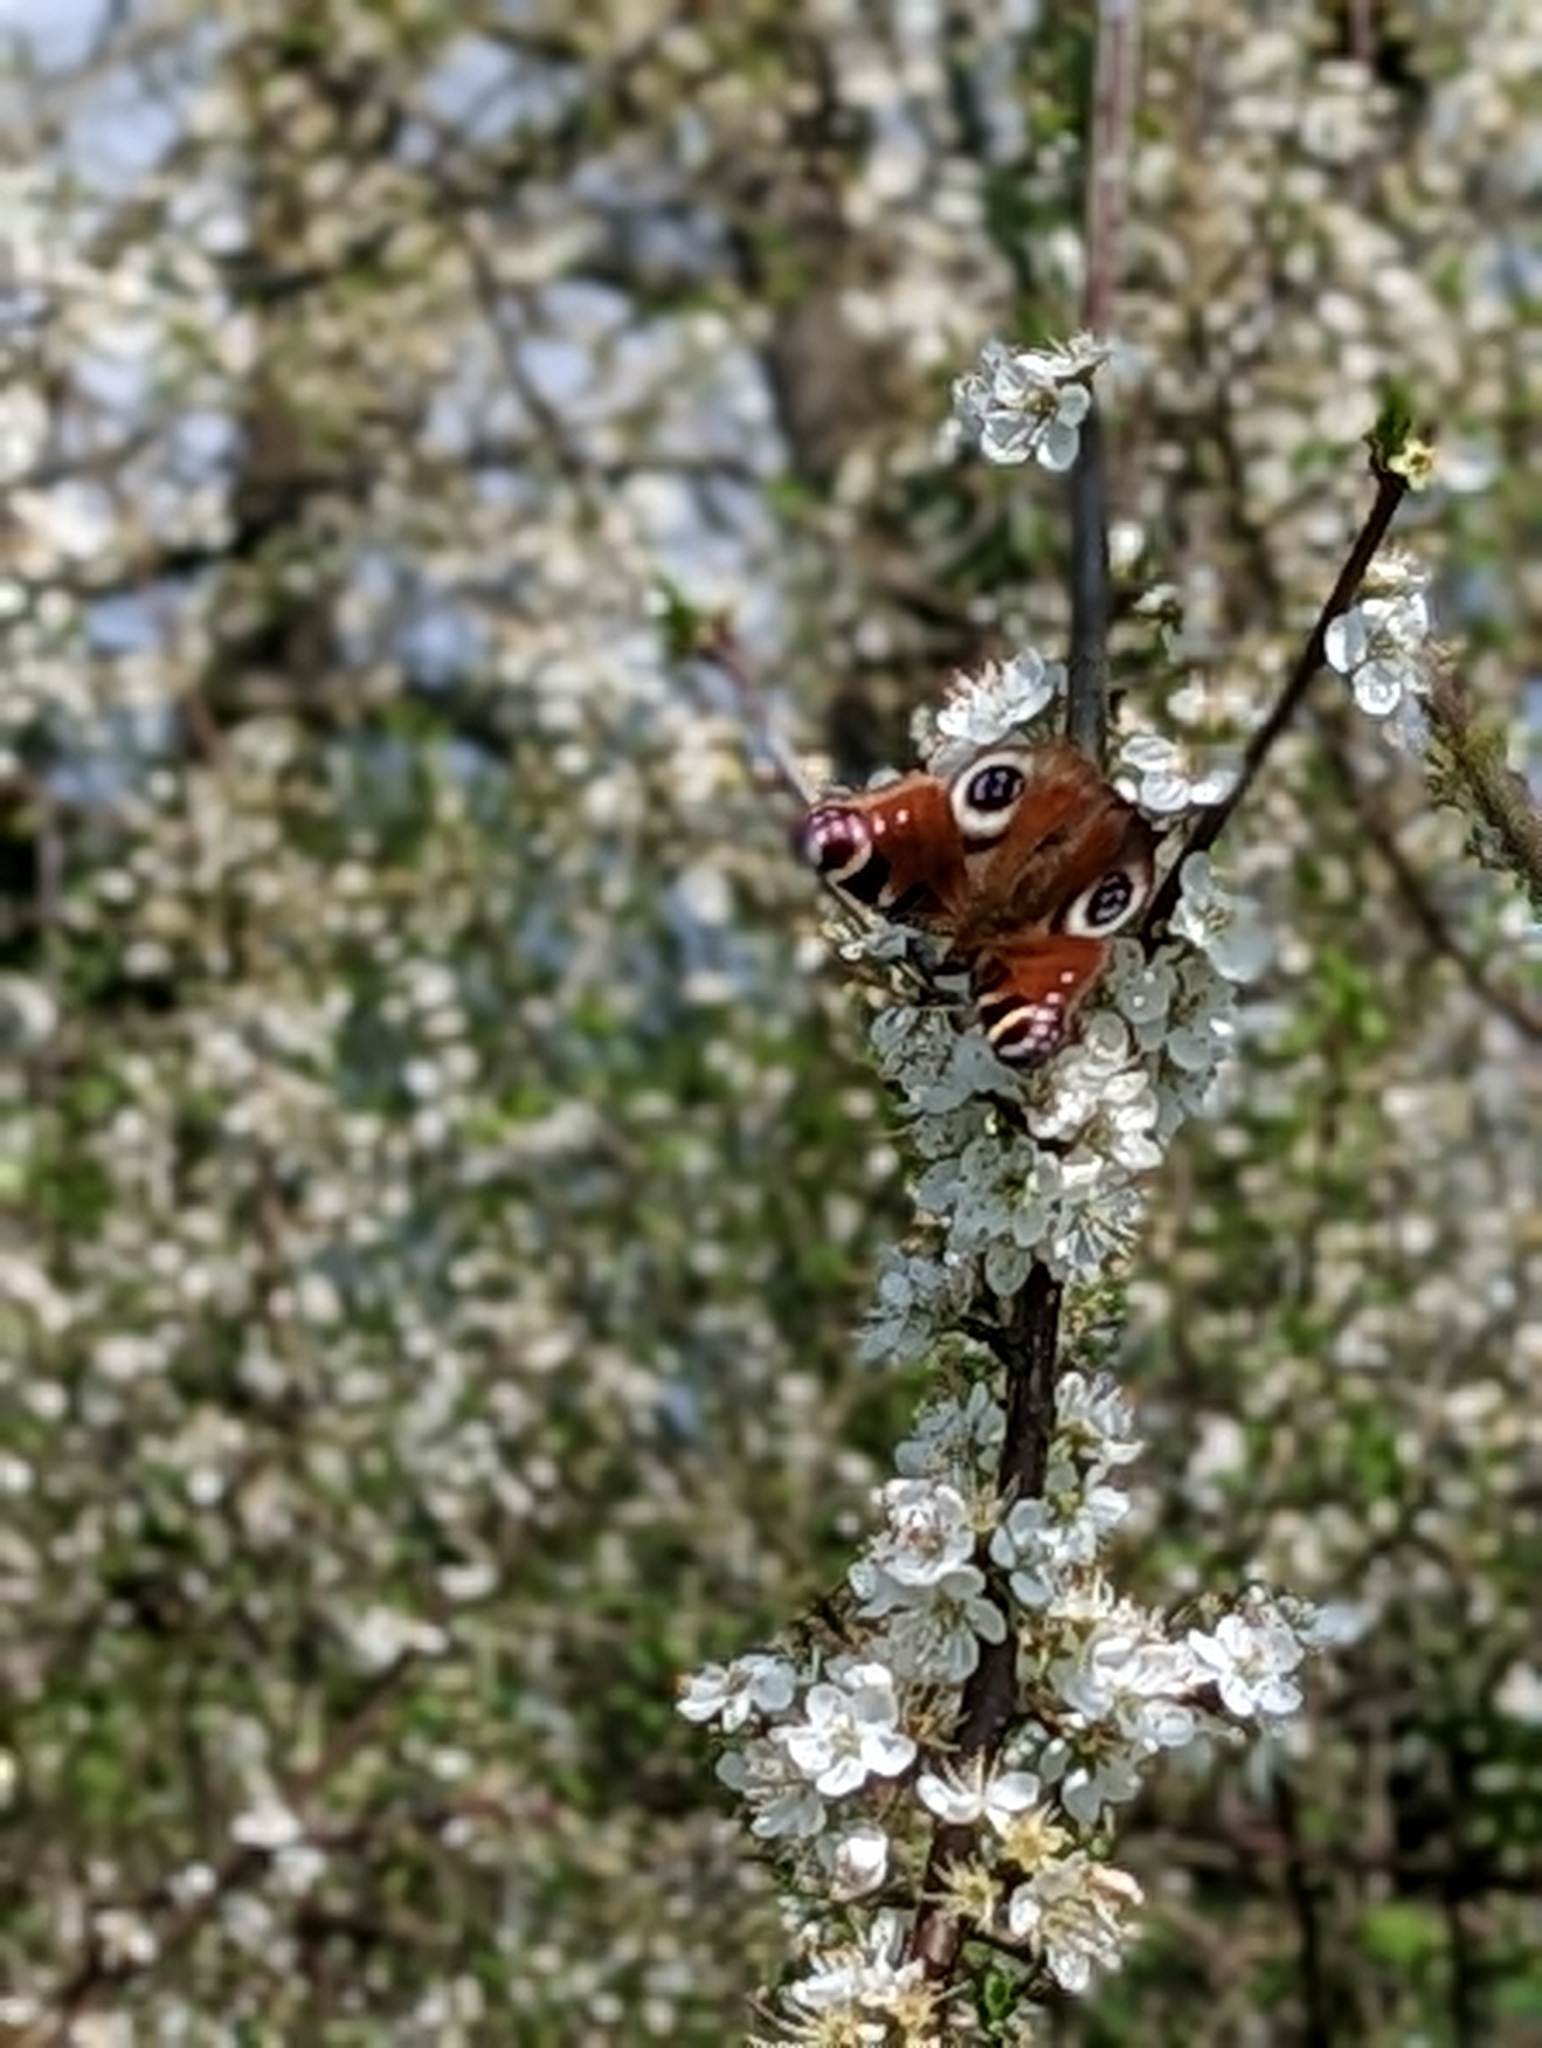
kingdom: Animalia
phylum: Arthropoda
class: Insecta
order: Lepidoptera
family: Nymphalidae
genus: Aglais
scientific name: Aglais io
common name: Peacock
